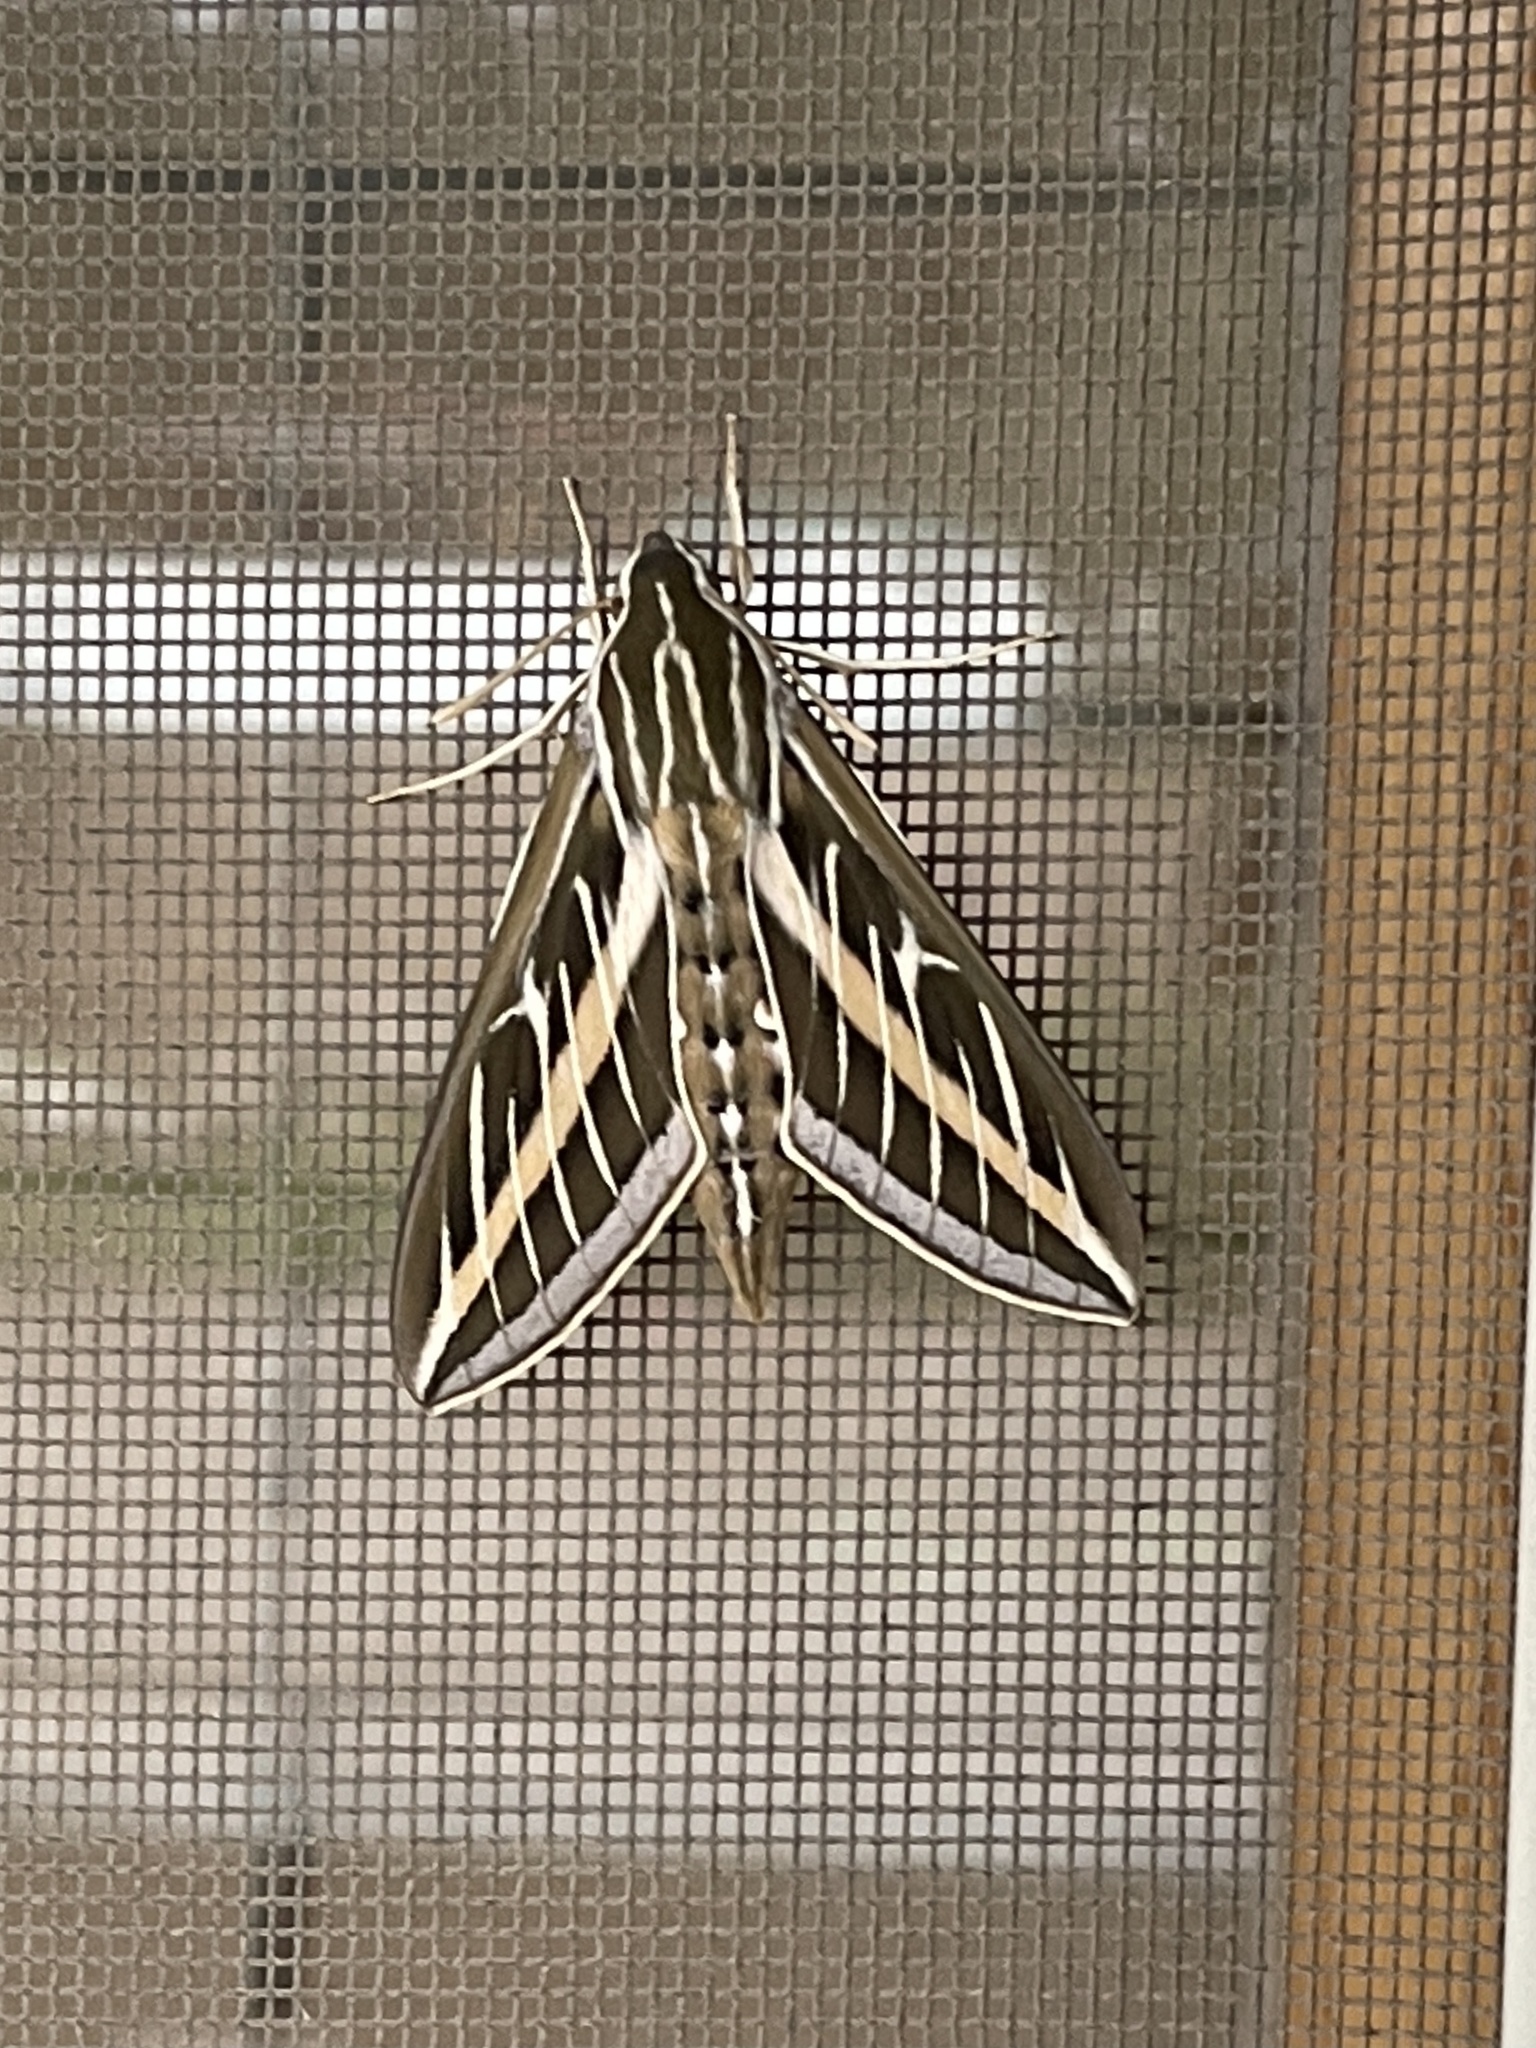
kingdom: Animalia
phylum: Arthropoda
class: Insecta
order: Lepidoptera
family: Sphingidae
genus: Hyles
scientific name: Hyles lineata
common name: White-lined sphinx
